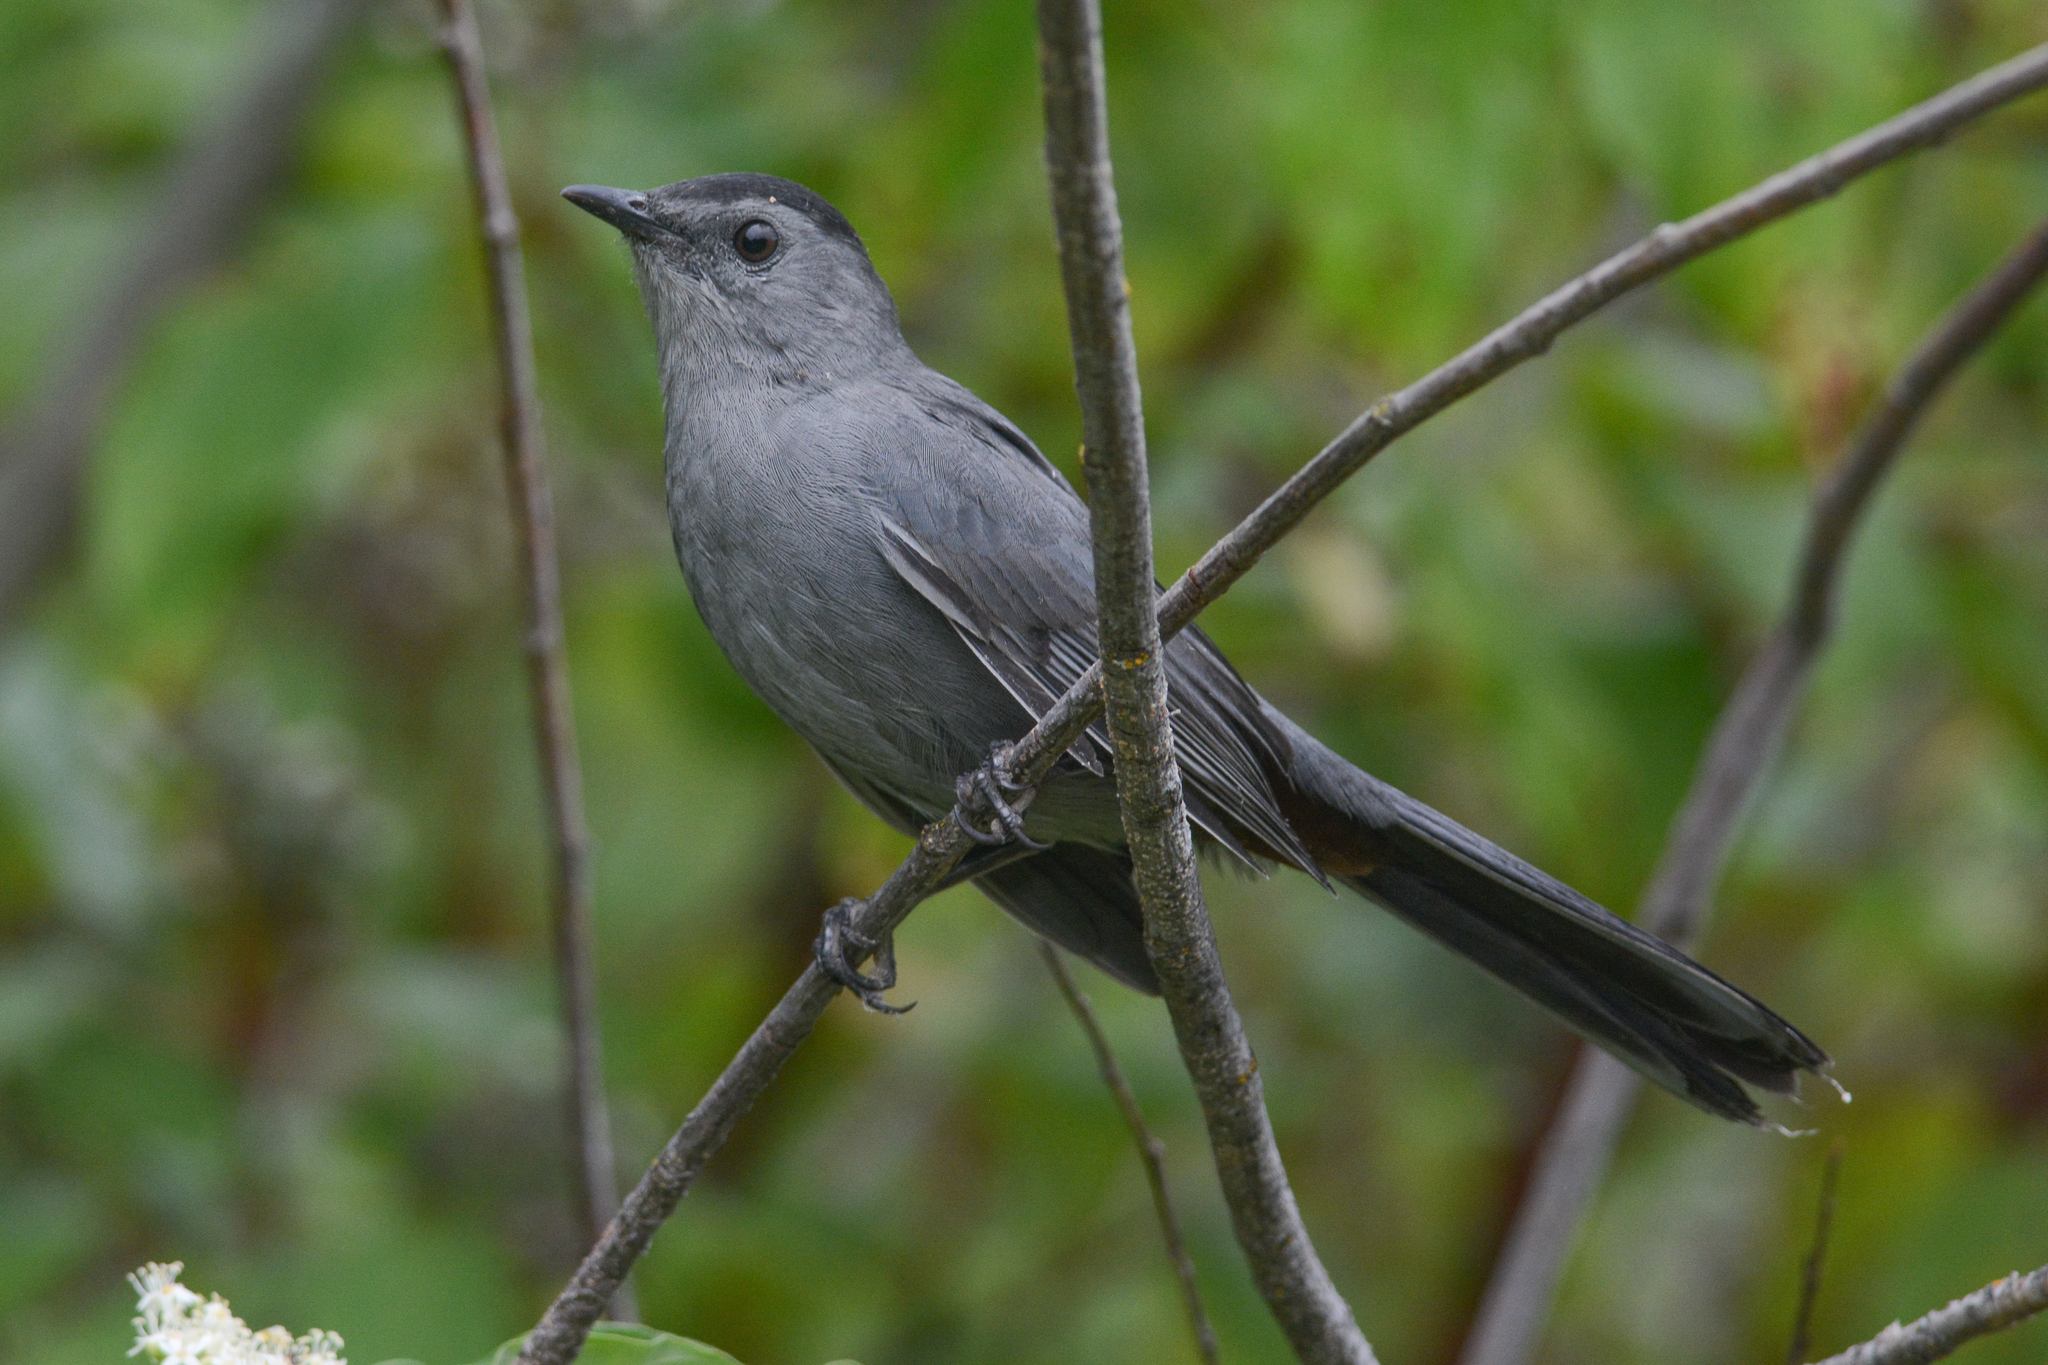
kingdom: Animalia
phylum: Chordata
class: Aves
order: Passeriformes
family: Mimidae
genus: Dumetella
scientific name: Dumetella carolinensis
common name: Gray catbird
